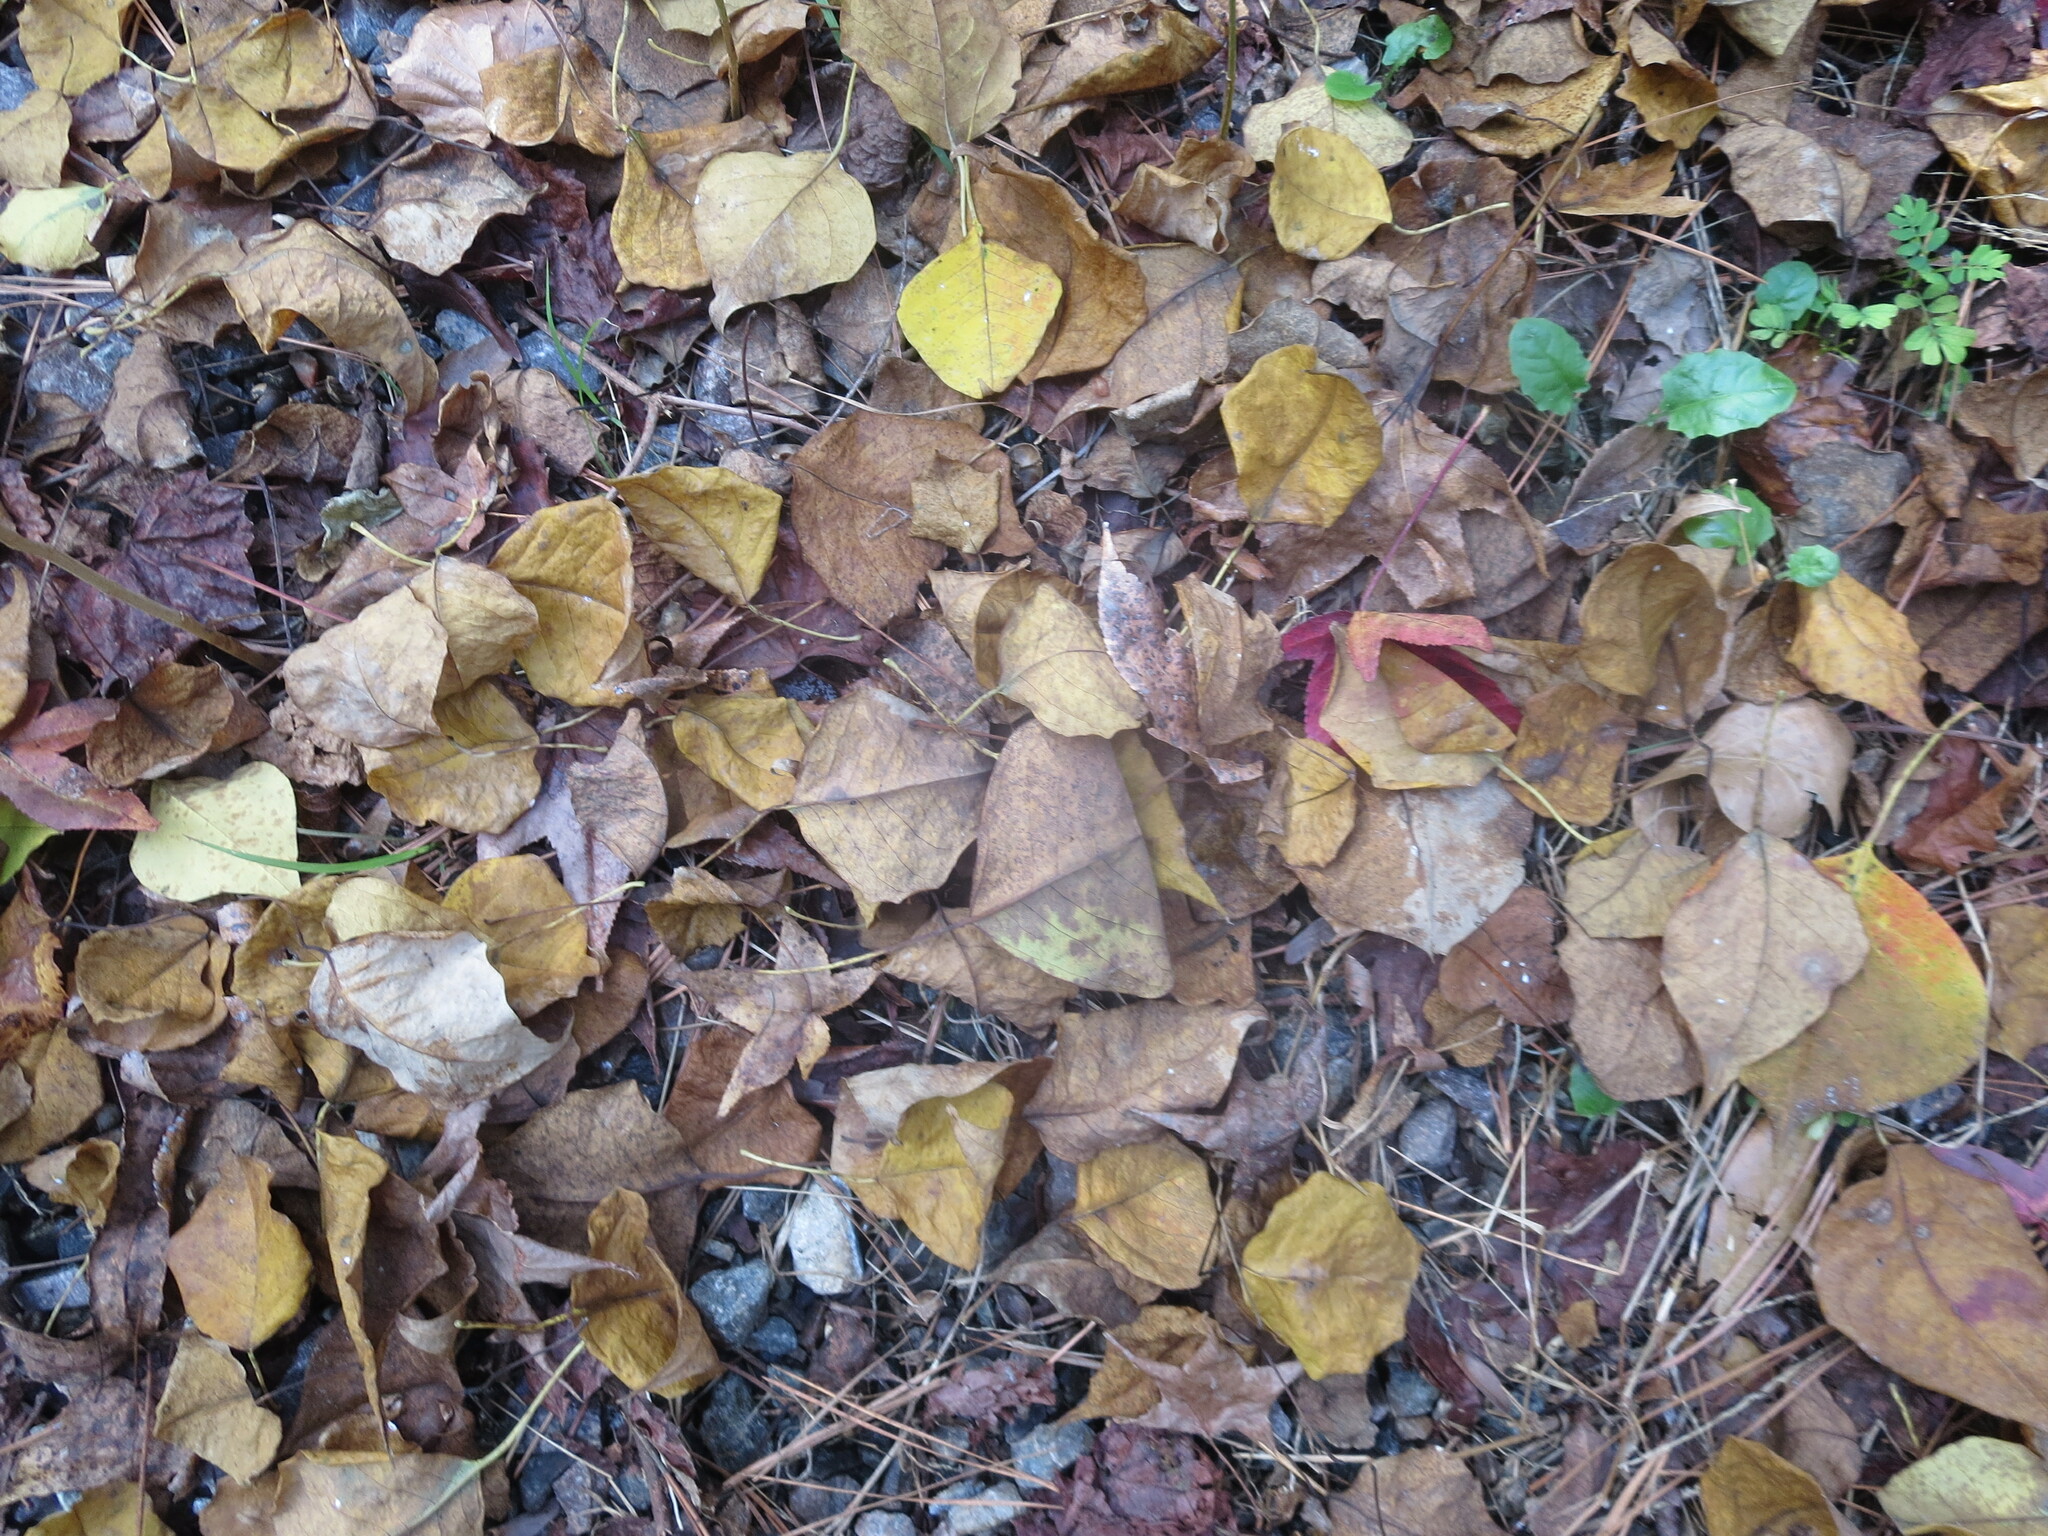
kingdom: Plantae
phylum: Tracheophyta
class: Magnoliopsida
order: Malpighiales
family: Euphorbiaceae
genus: Triadica
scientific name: Triadica sebifera
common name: Chinese tallow
